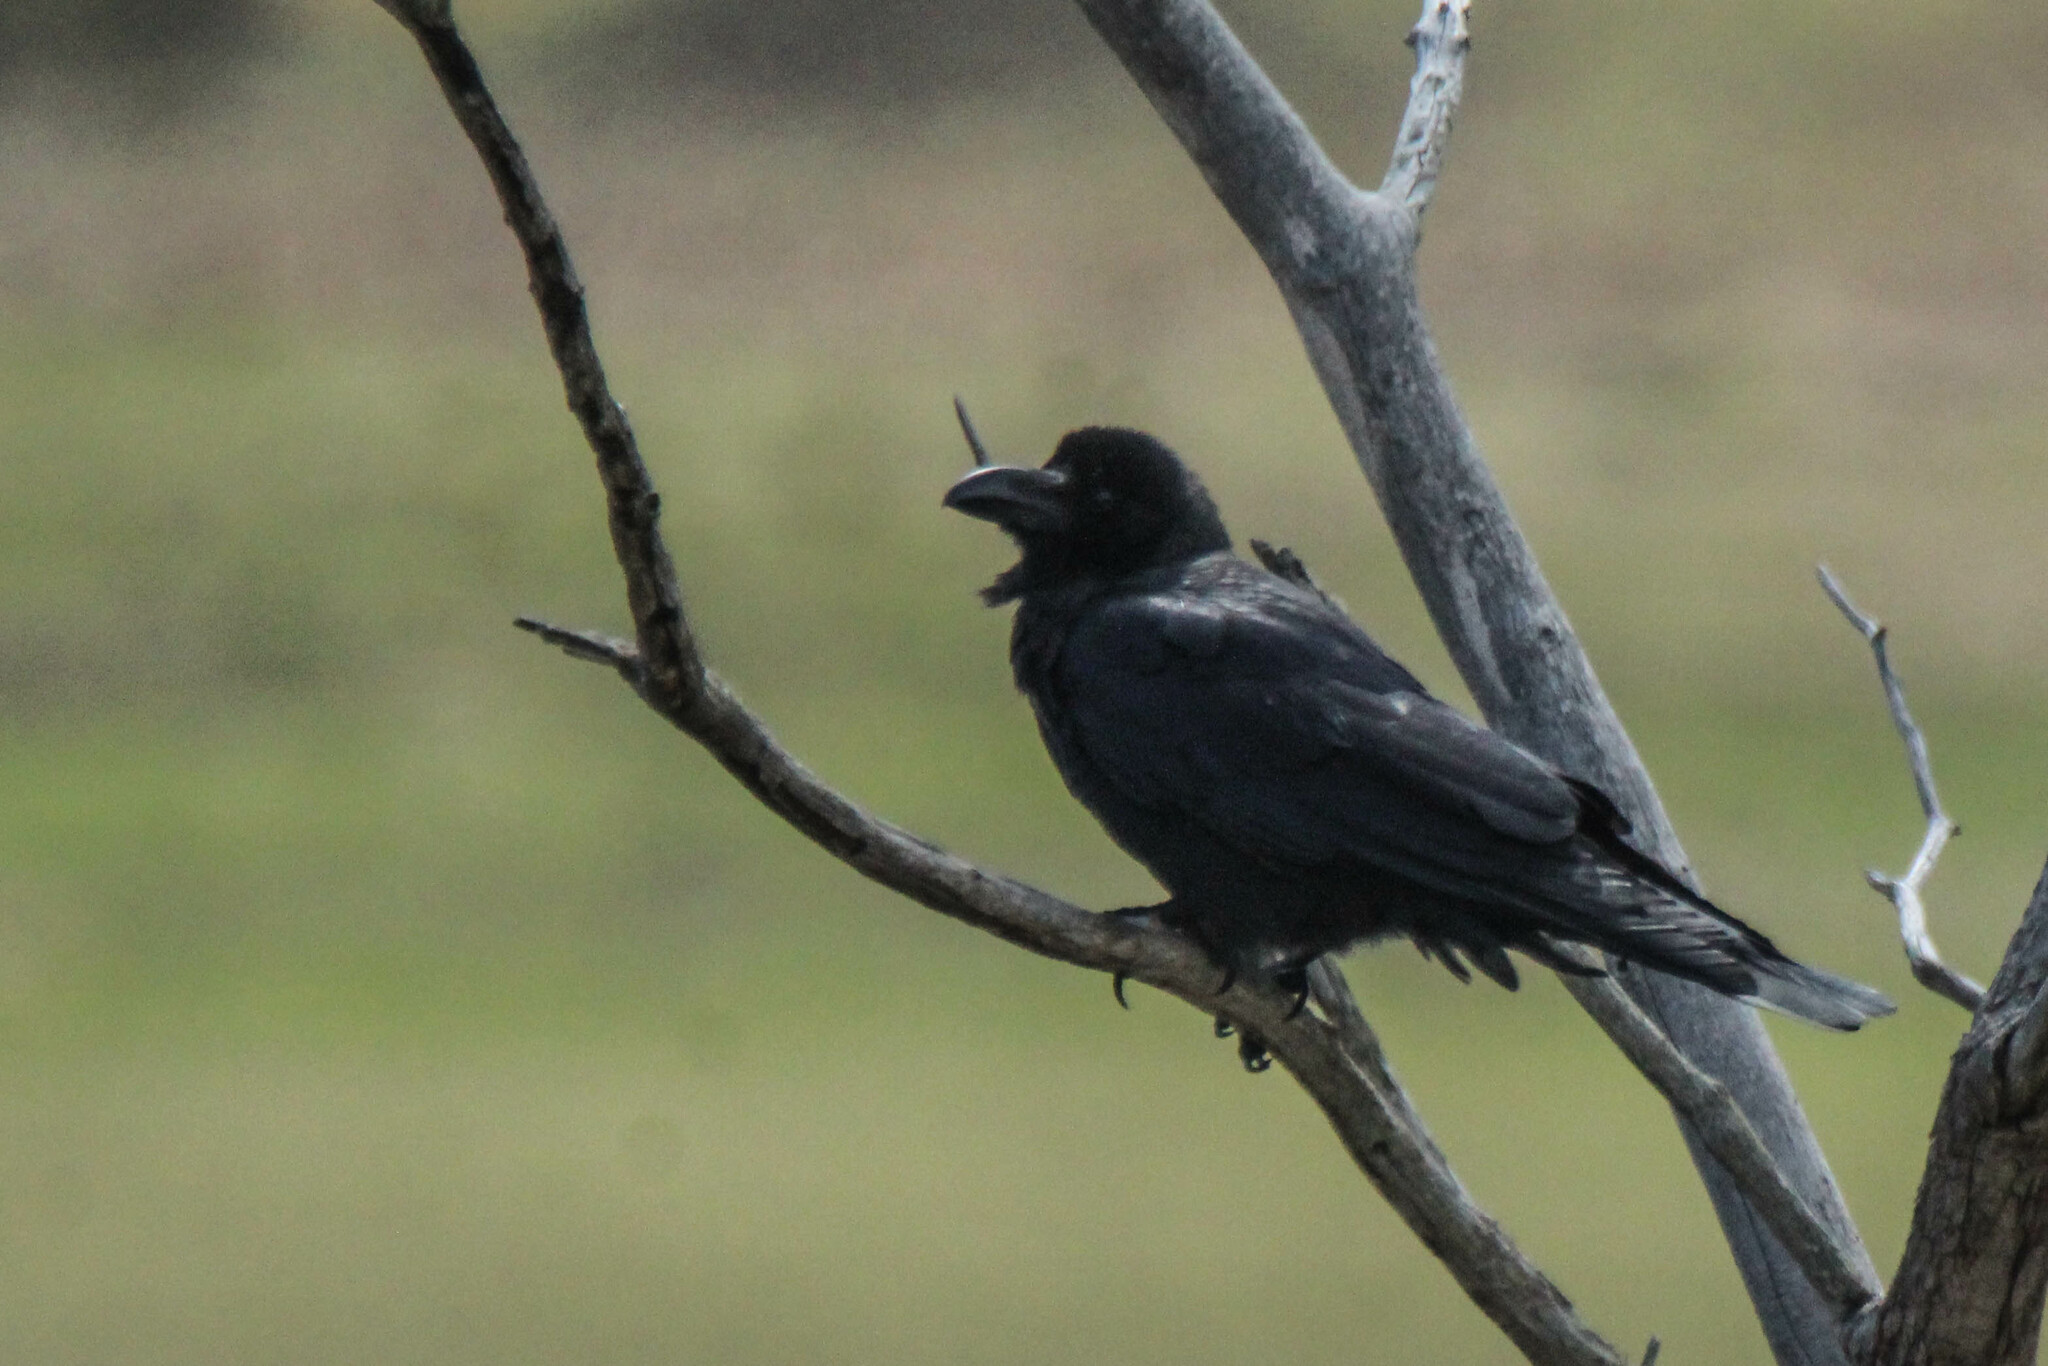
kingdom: Animalia
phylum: Chordata
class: Aves
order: Passeriformes
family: Corvidae
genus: Corvus
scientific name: Corvus macrorhynchos
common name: Large-billed crow
